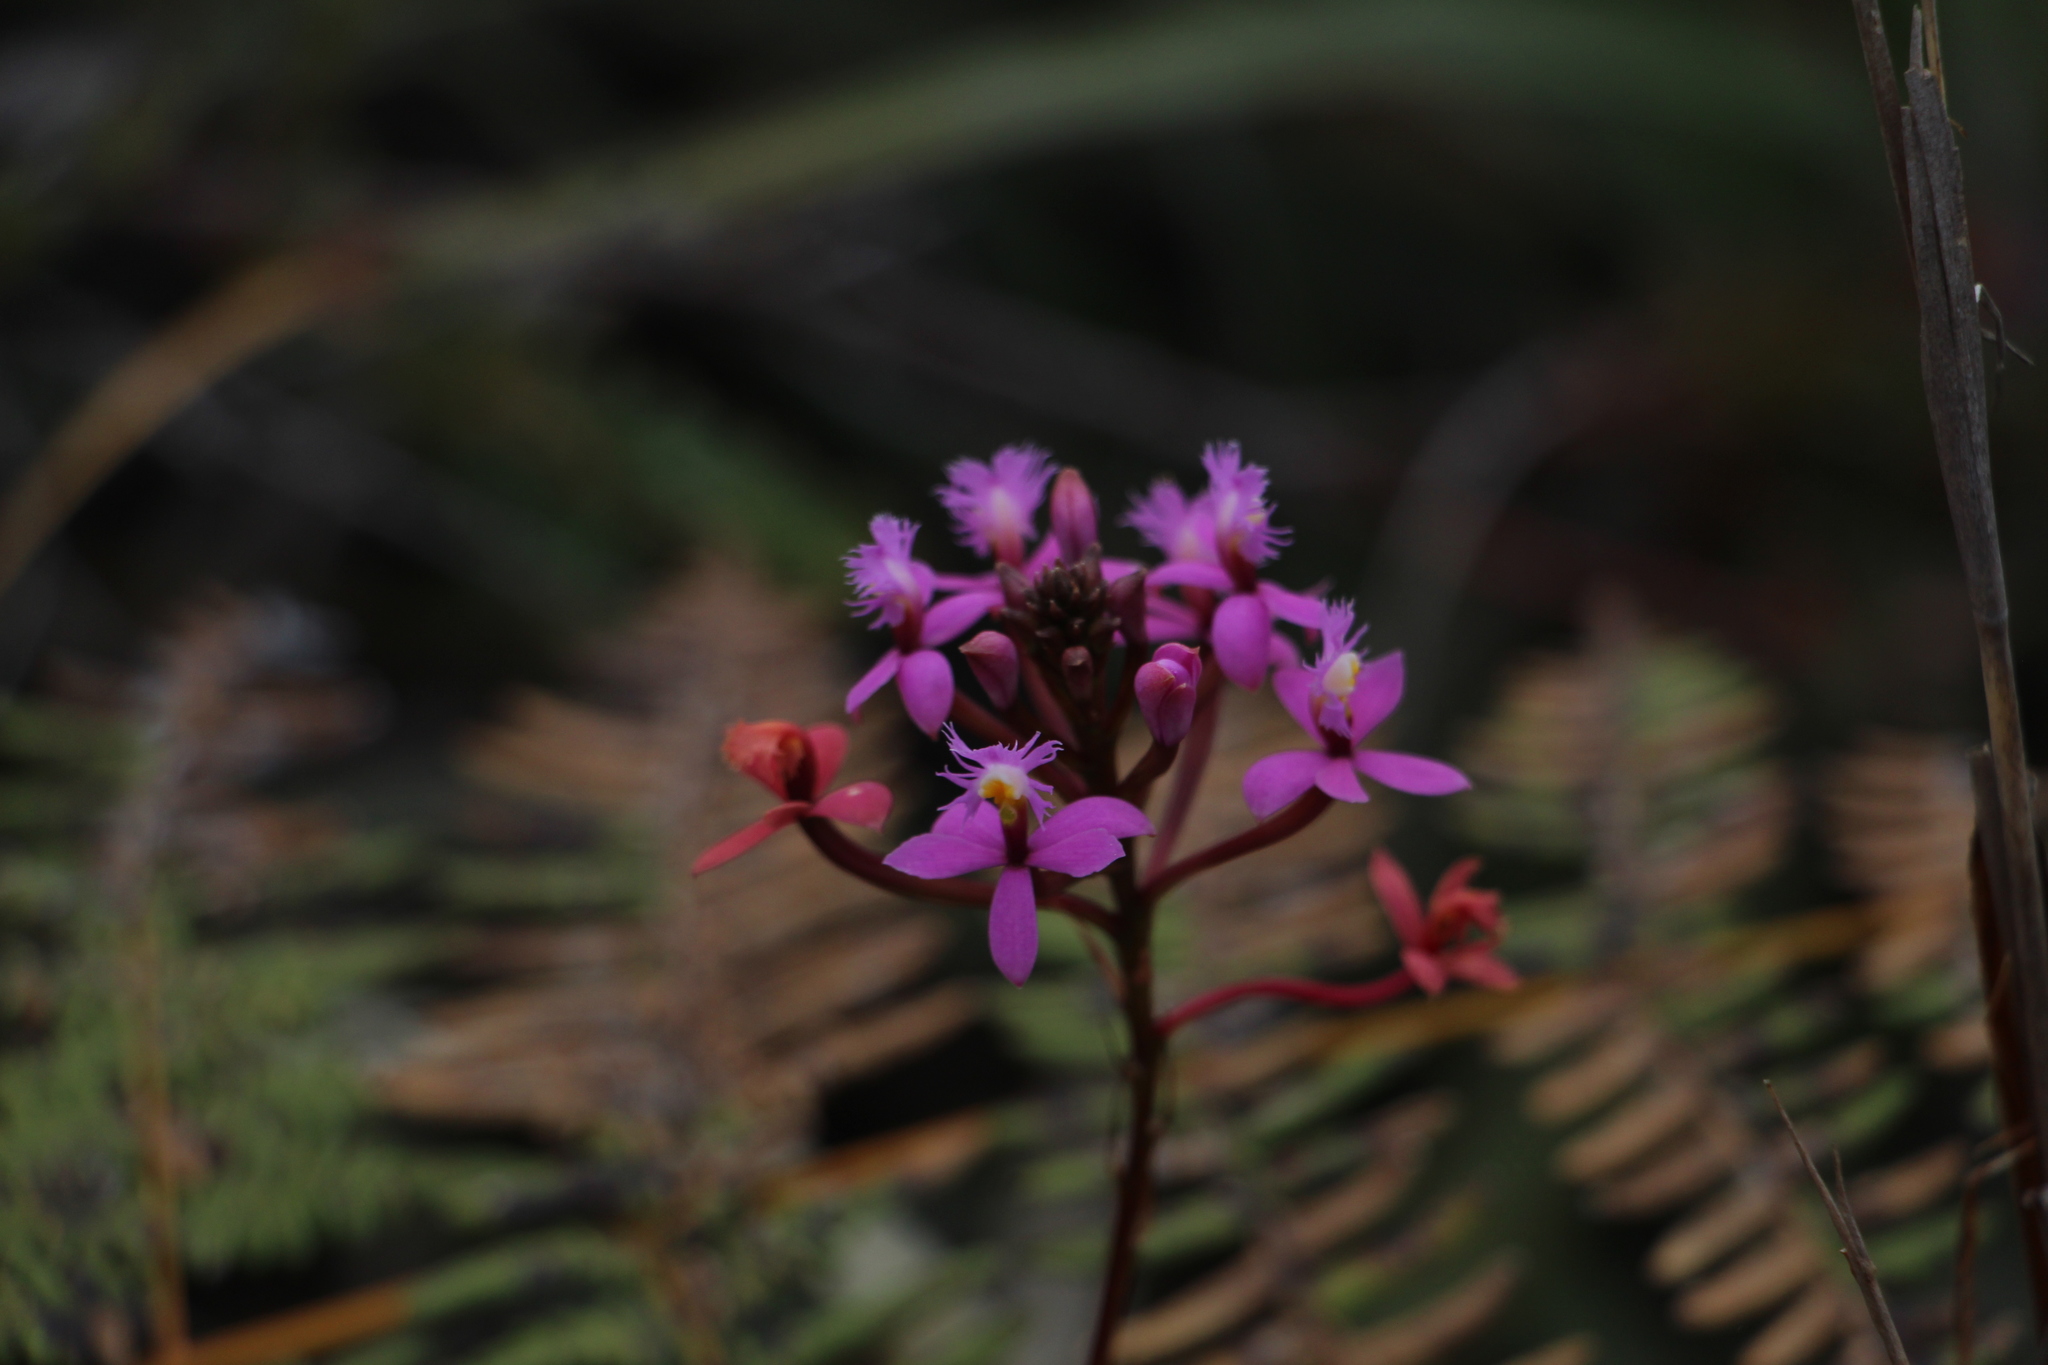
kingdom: Plantae
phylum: Tracheophyta
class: Liliopsida
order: Asparagales
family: Orchidaceae
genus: Epidendrum
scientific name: Epidendrum arachnoglossum
